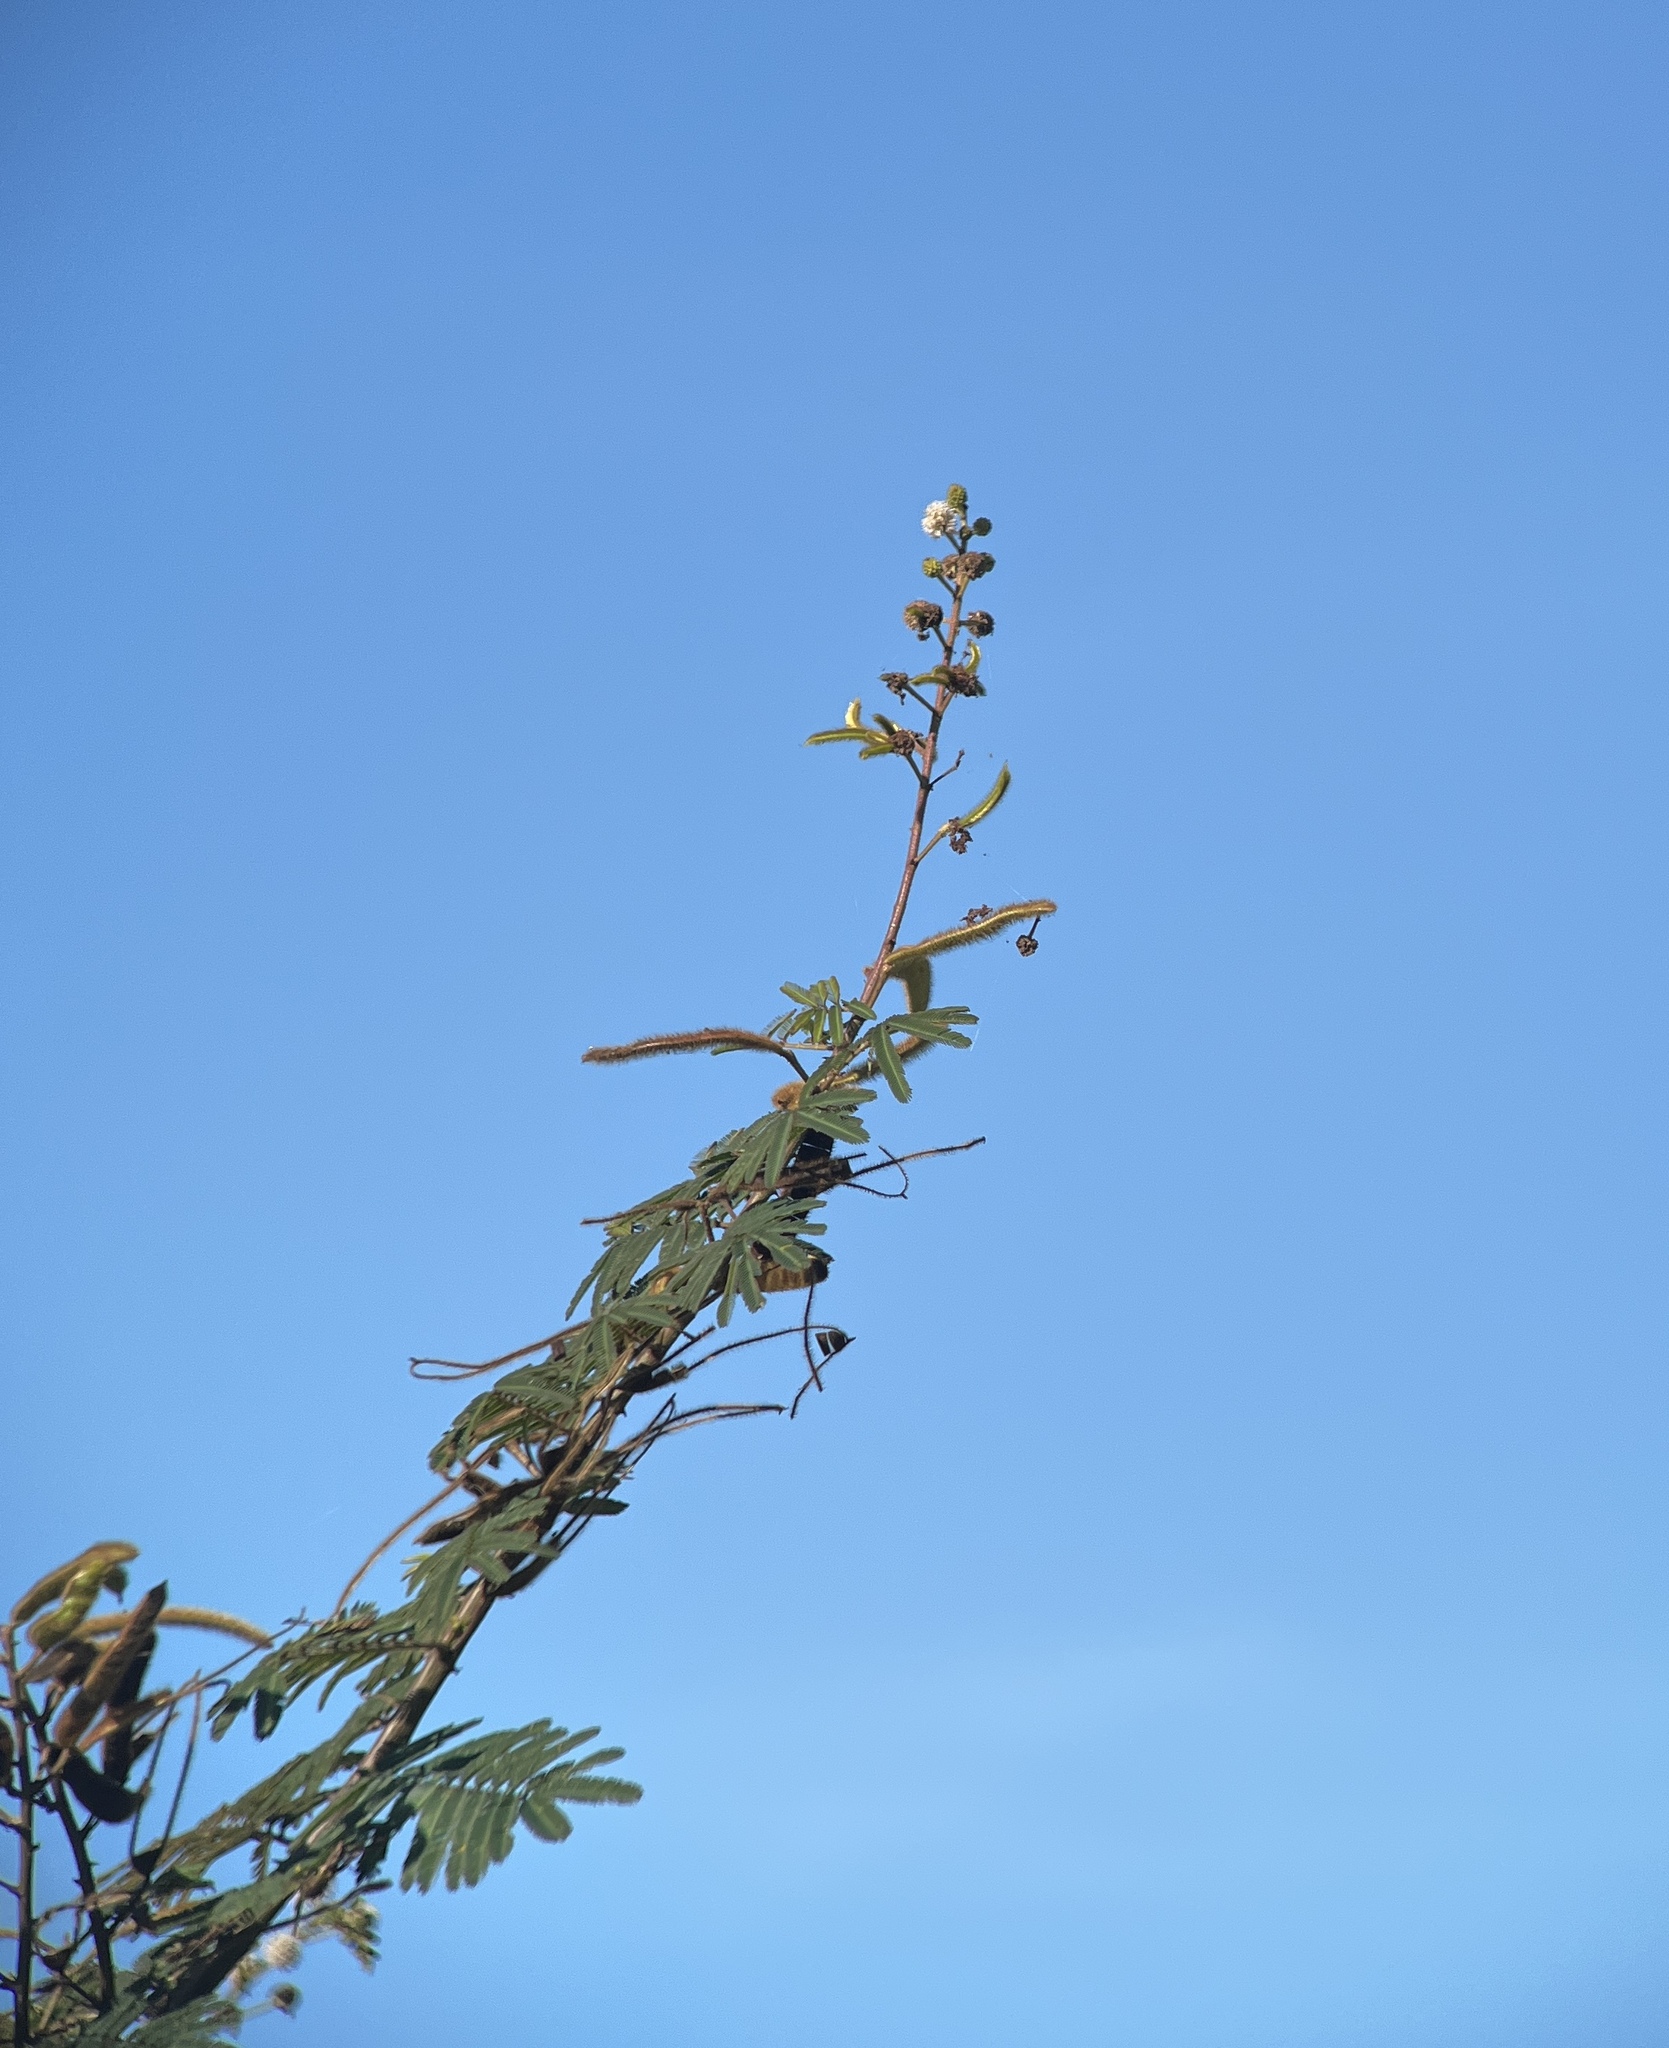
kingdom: Plantae
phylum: Tracheophyta
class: Magnoliopsida
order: Fabales
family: Fabaceae
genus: Mimosa
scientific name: Mimosa pigra
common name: Black mimosa
